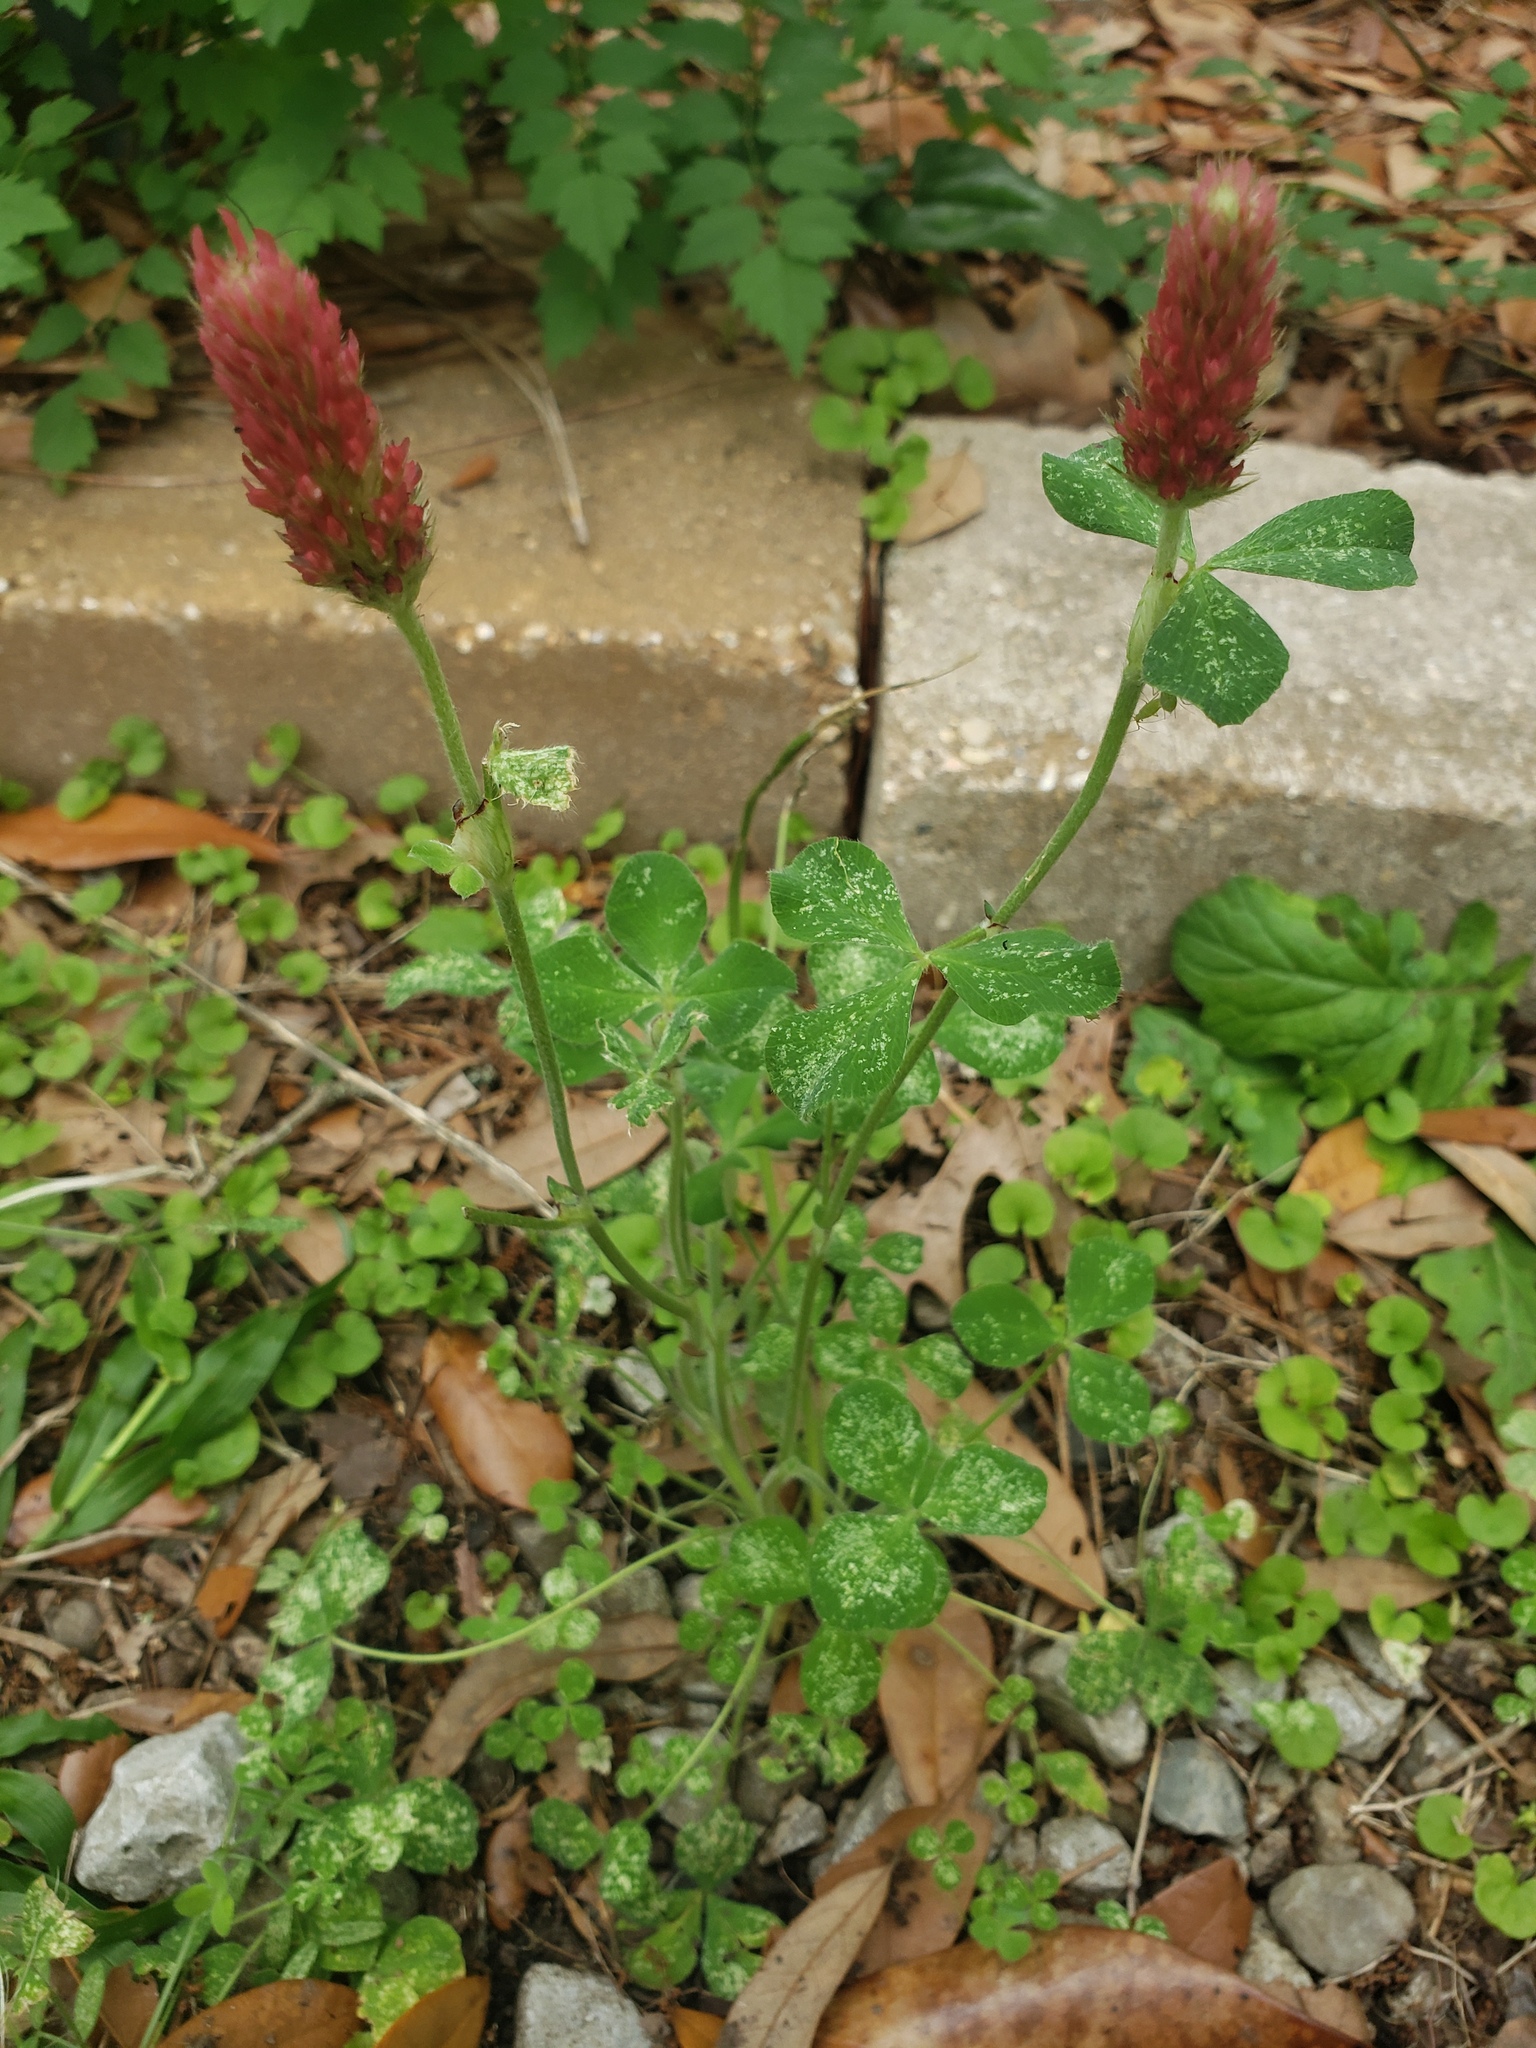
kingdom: Plantae
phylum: Tracheophyta
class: Magnoliopsida
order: Fabales
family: Fabaceae
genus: Trifolium
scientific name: Trifolium incarnatum
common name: Crimson clover
